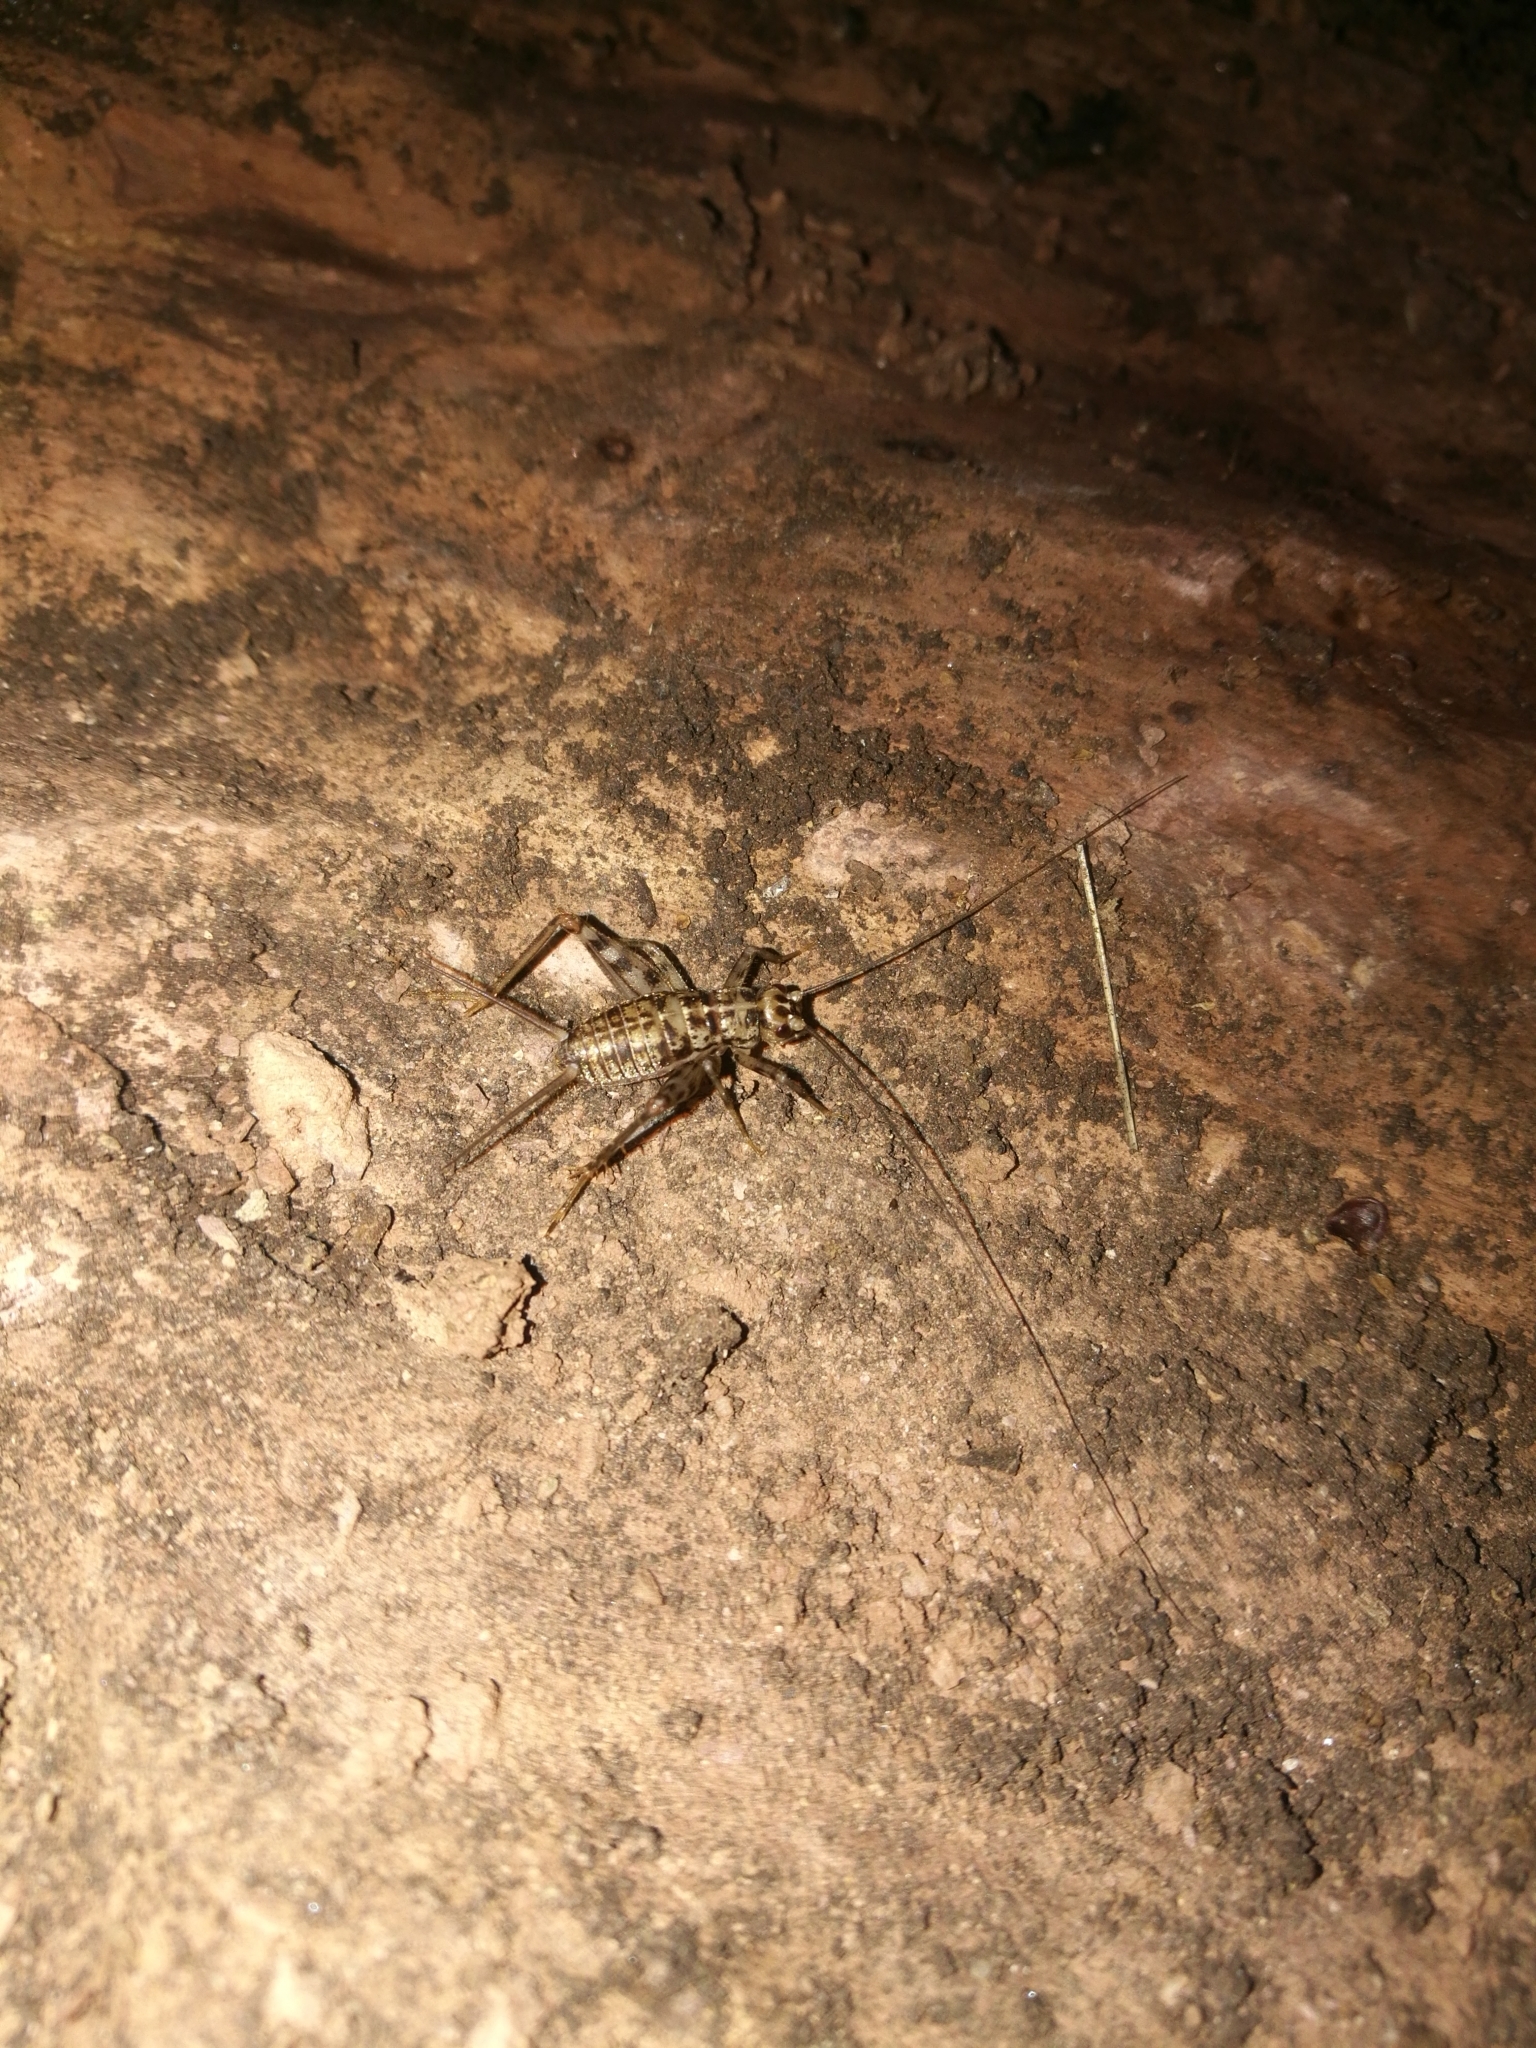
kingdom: Animalia
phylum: Arthropoda
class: Insecta
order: Orthoptera
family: Gryllidae
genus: Gryllomorpha
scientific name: Gryllomorpha dalmatina
